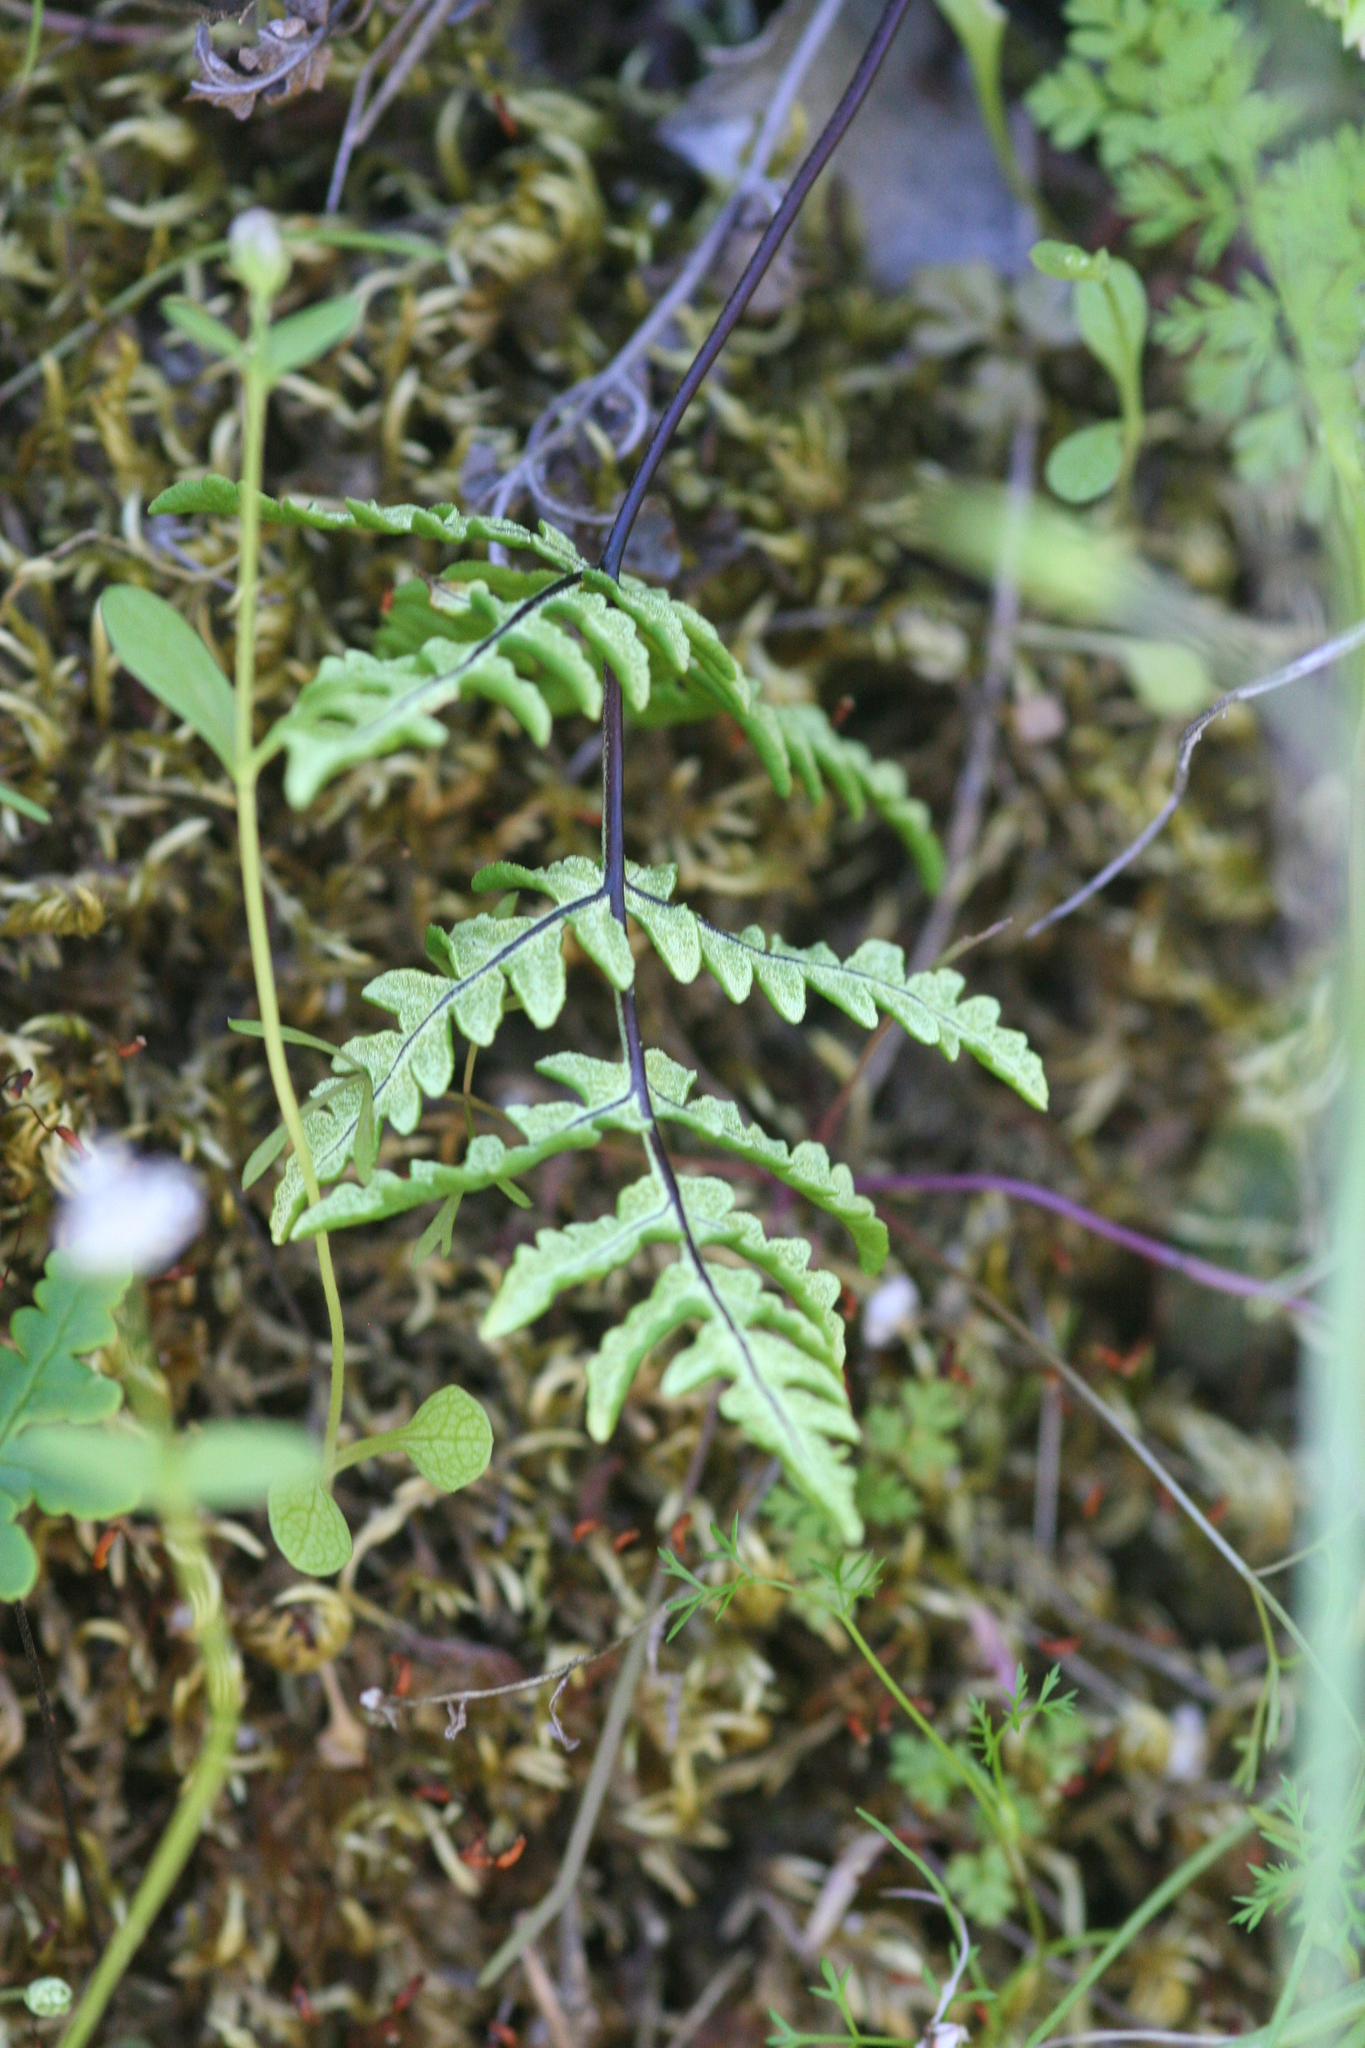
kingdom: Plantae
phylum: Tracheophyta
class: Polypodiopsida
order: Polypodiales
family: Pteridaceae
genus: Pentagramma
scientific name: Pentagramma triangularis
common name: Gold fern
